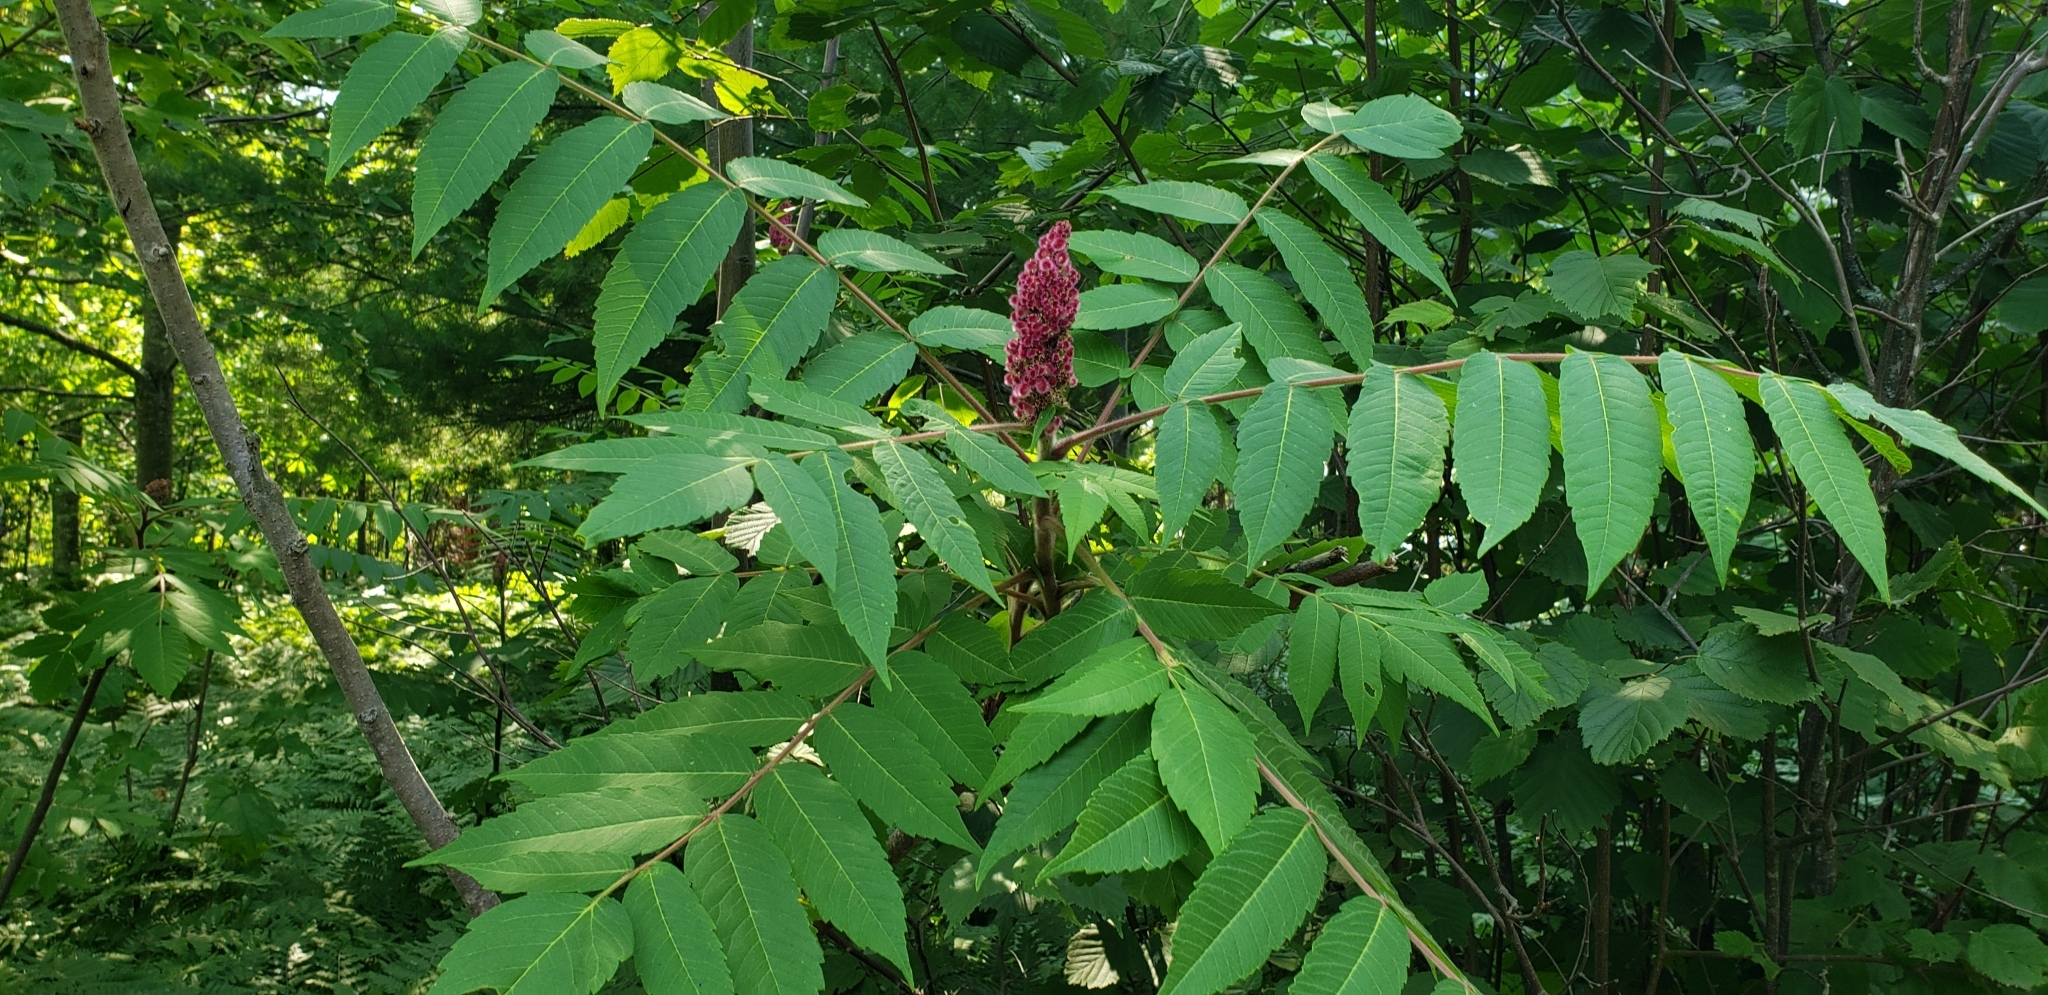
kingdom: Plantae
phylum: Tracheophyta
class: Magnoliopsida
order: Sapindales
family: Anacardiaceae
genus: Rhus
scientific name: Rhus typhina
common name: Staghorn sumac
